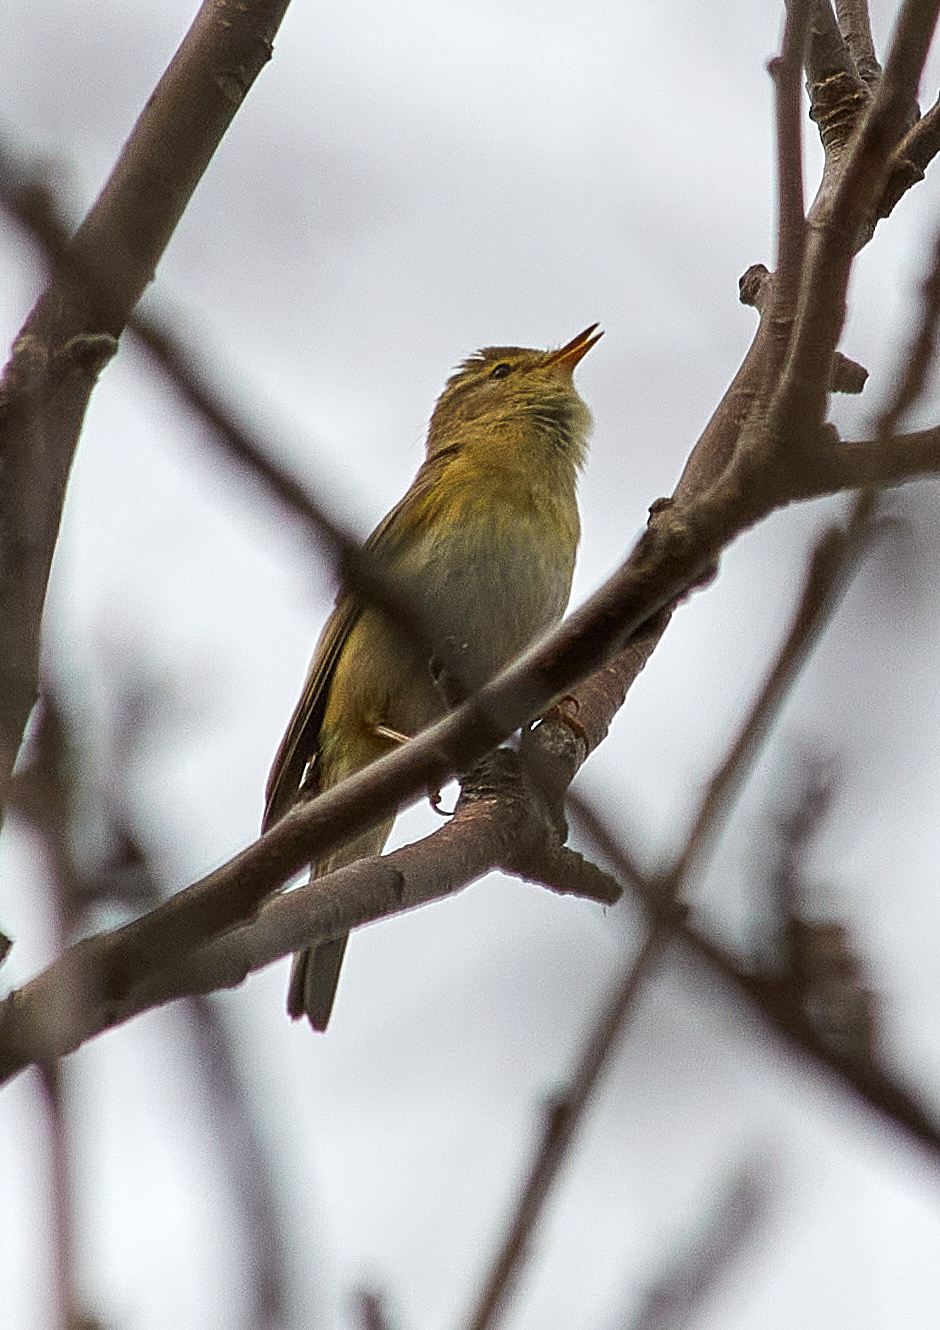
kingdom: Animalia
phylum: Chordata
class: Aves
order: Passeriformes
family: Phylloscopidae
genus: Phylloscopus
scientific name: Phylloscopus trochilus
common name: Willow warbler
